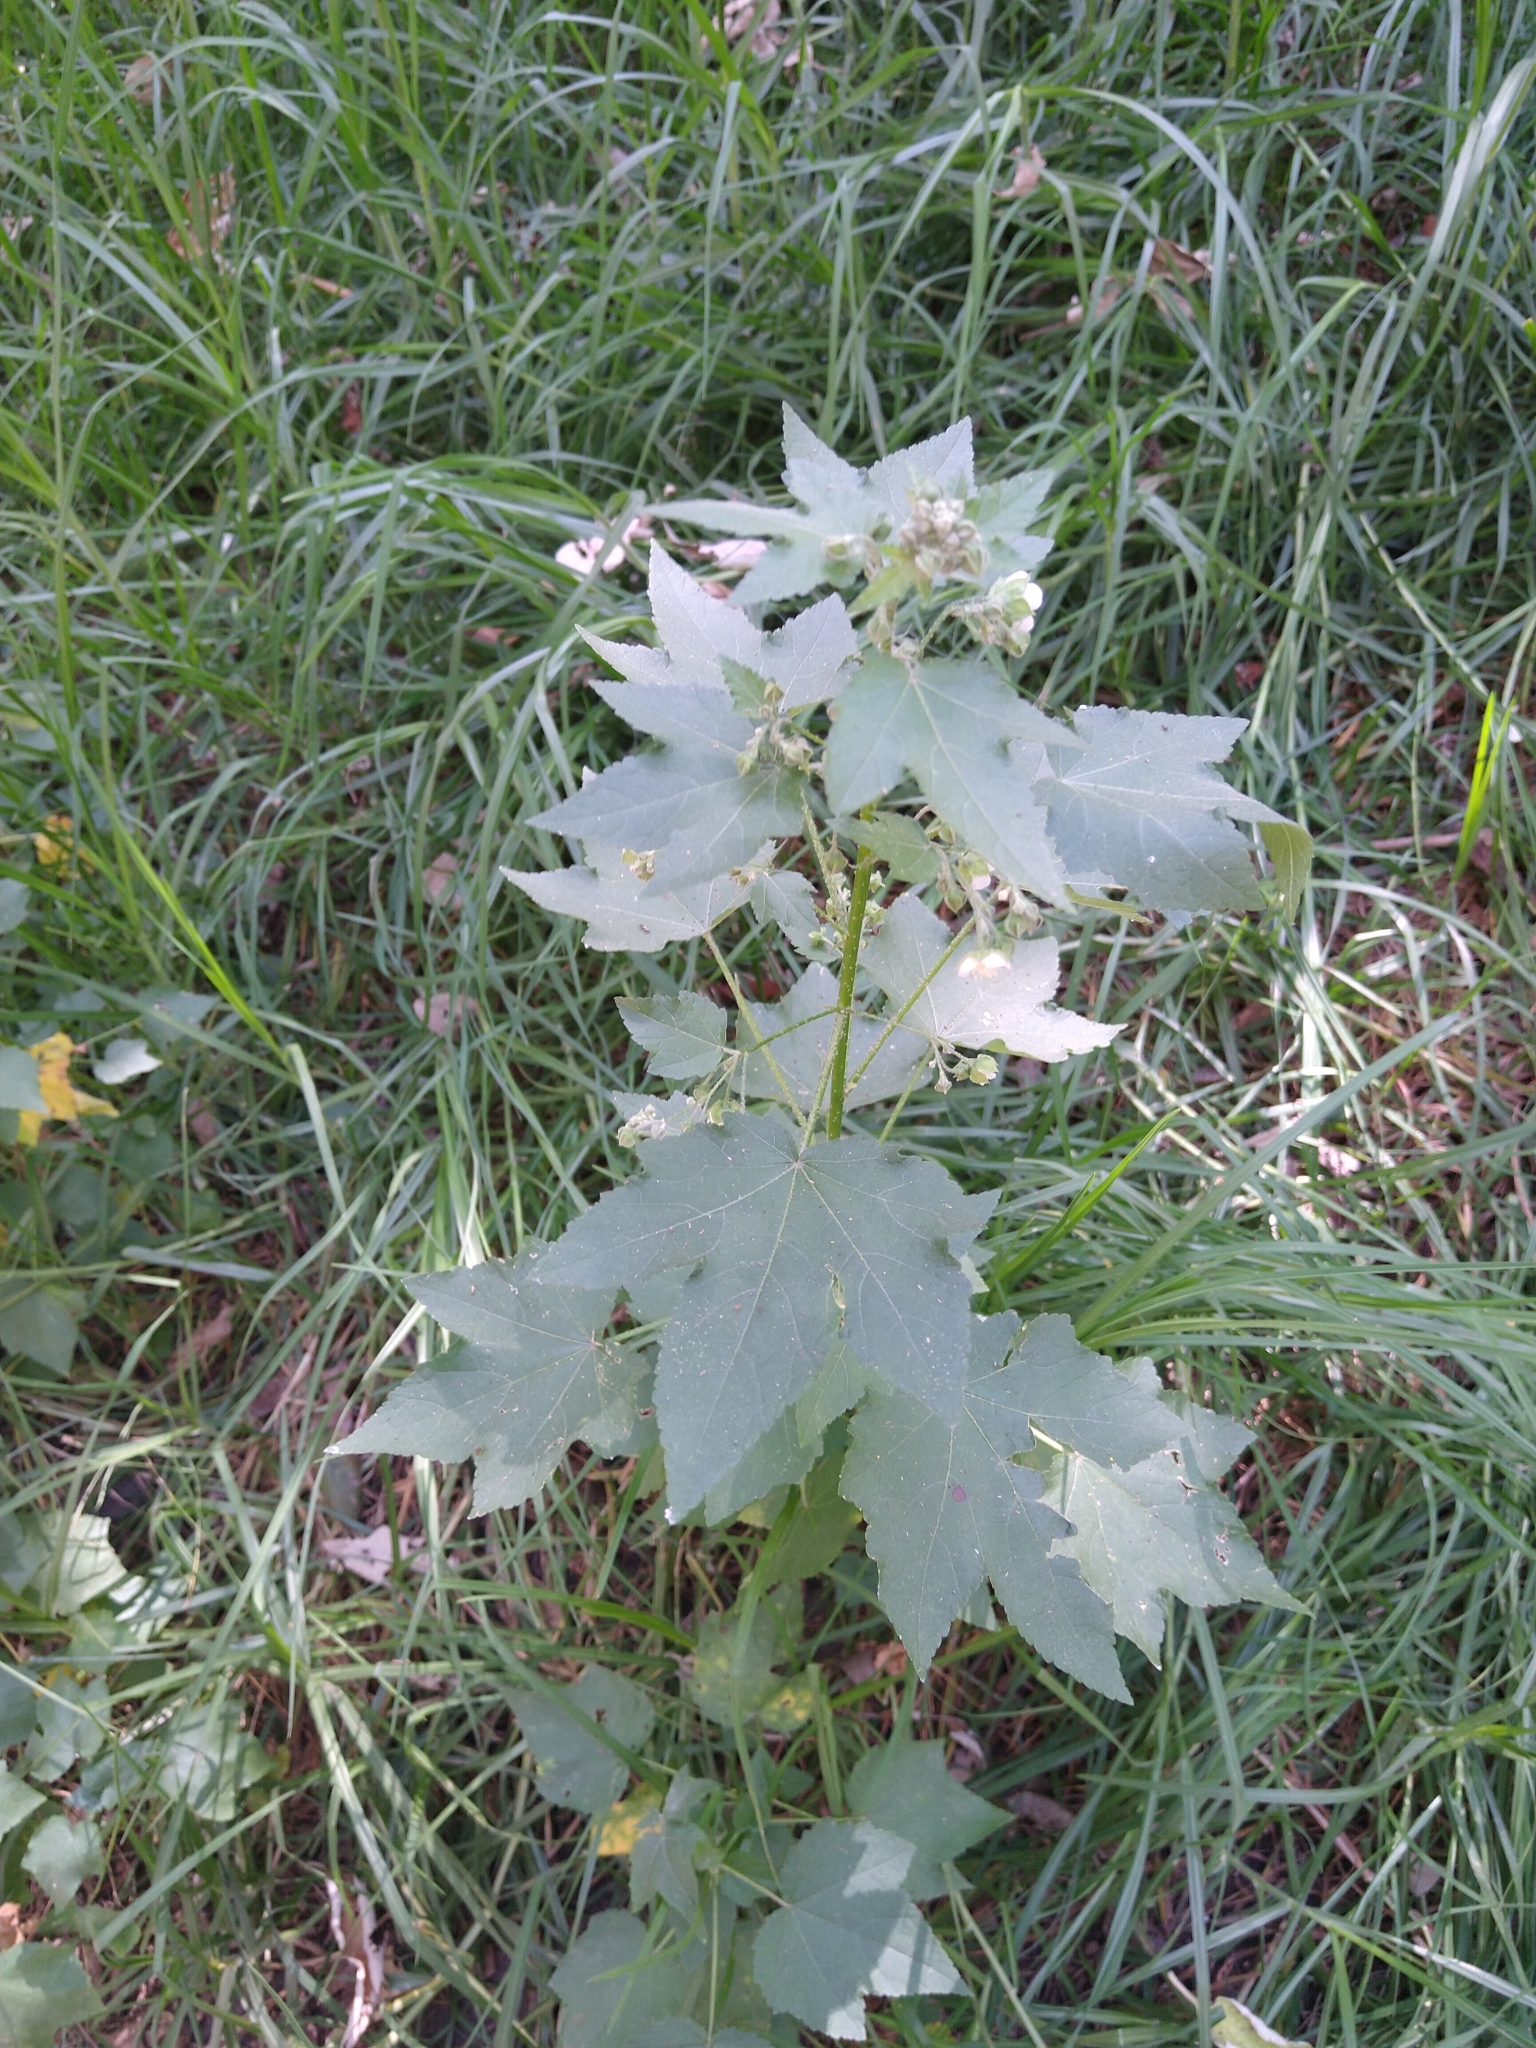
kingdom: Plantae
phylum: Tracheophyta
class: Magnoliopsida
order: Malvales
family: Malvaceae
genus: Kearnemalvastrum
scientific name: Kearnemalvastrum lacteum
